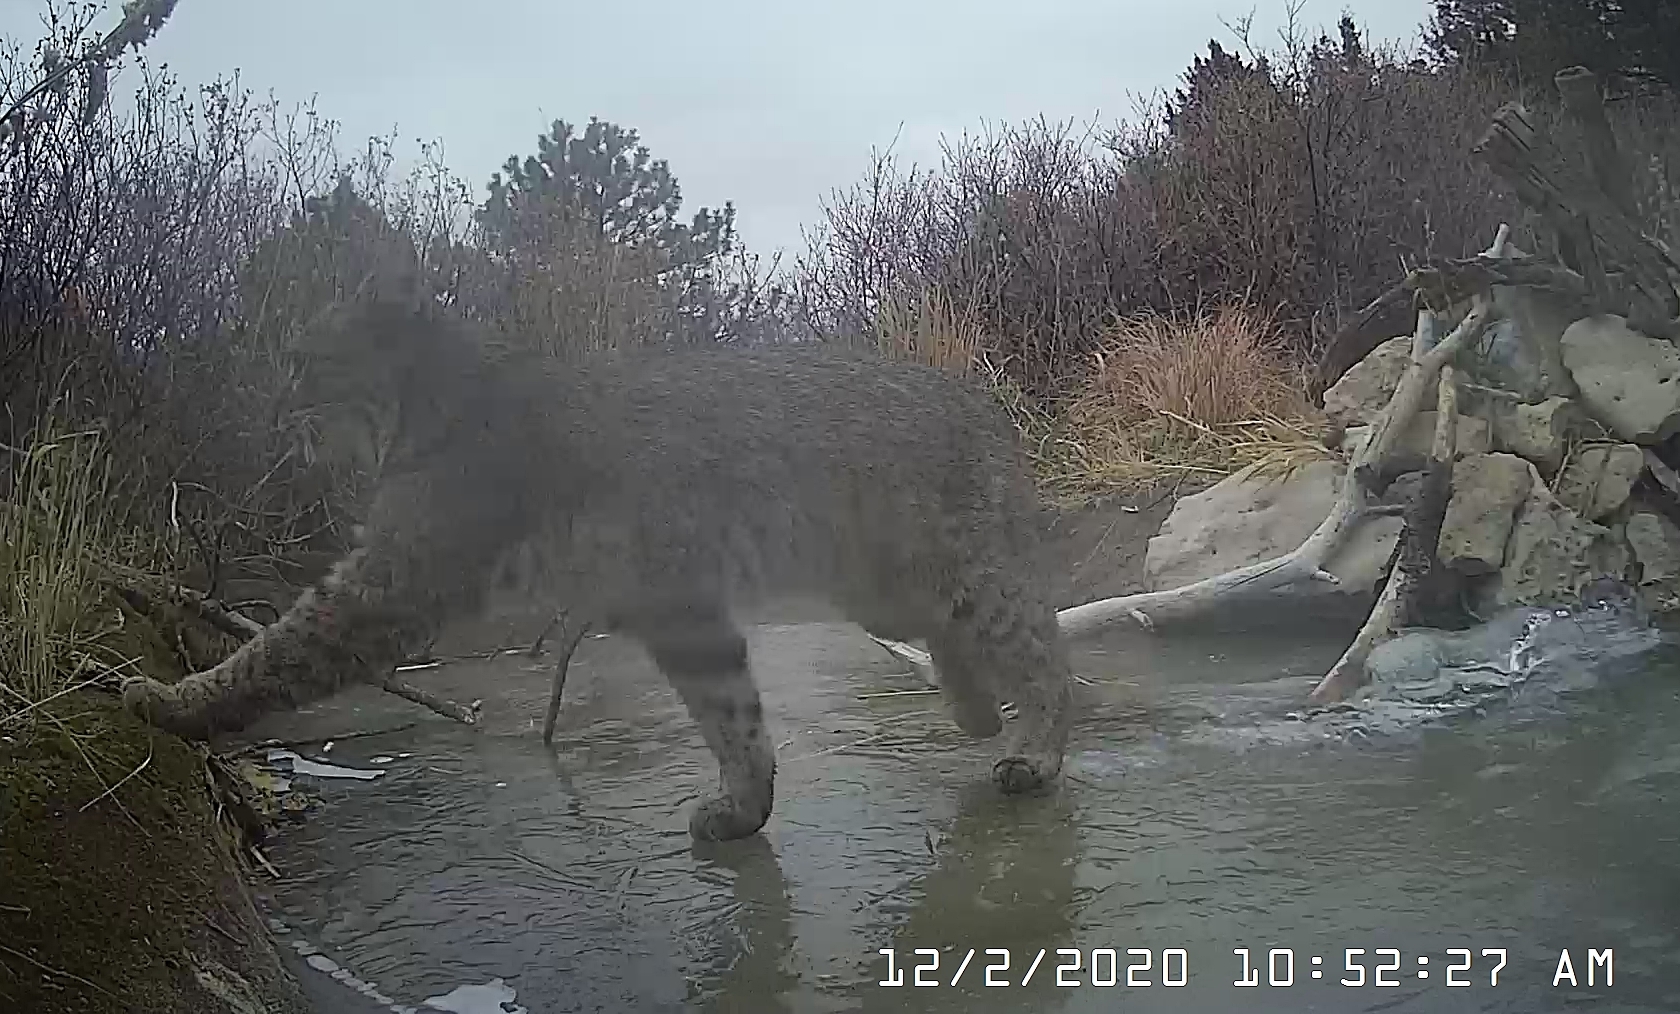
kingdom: Animalia
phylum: Chordata
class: Mammalia
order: Carnivora
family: Felidae
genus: Lynx
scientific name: Lynx rufus
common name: Bobcat
